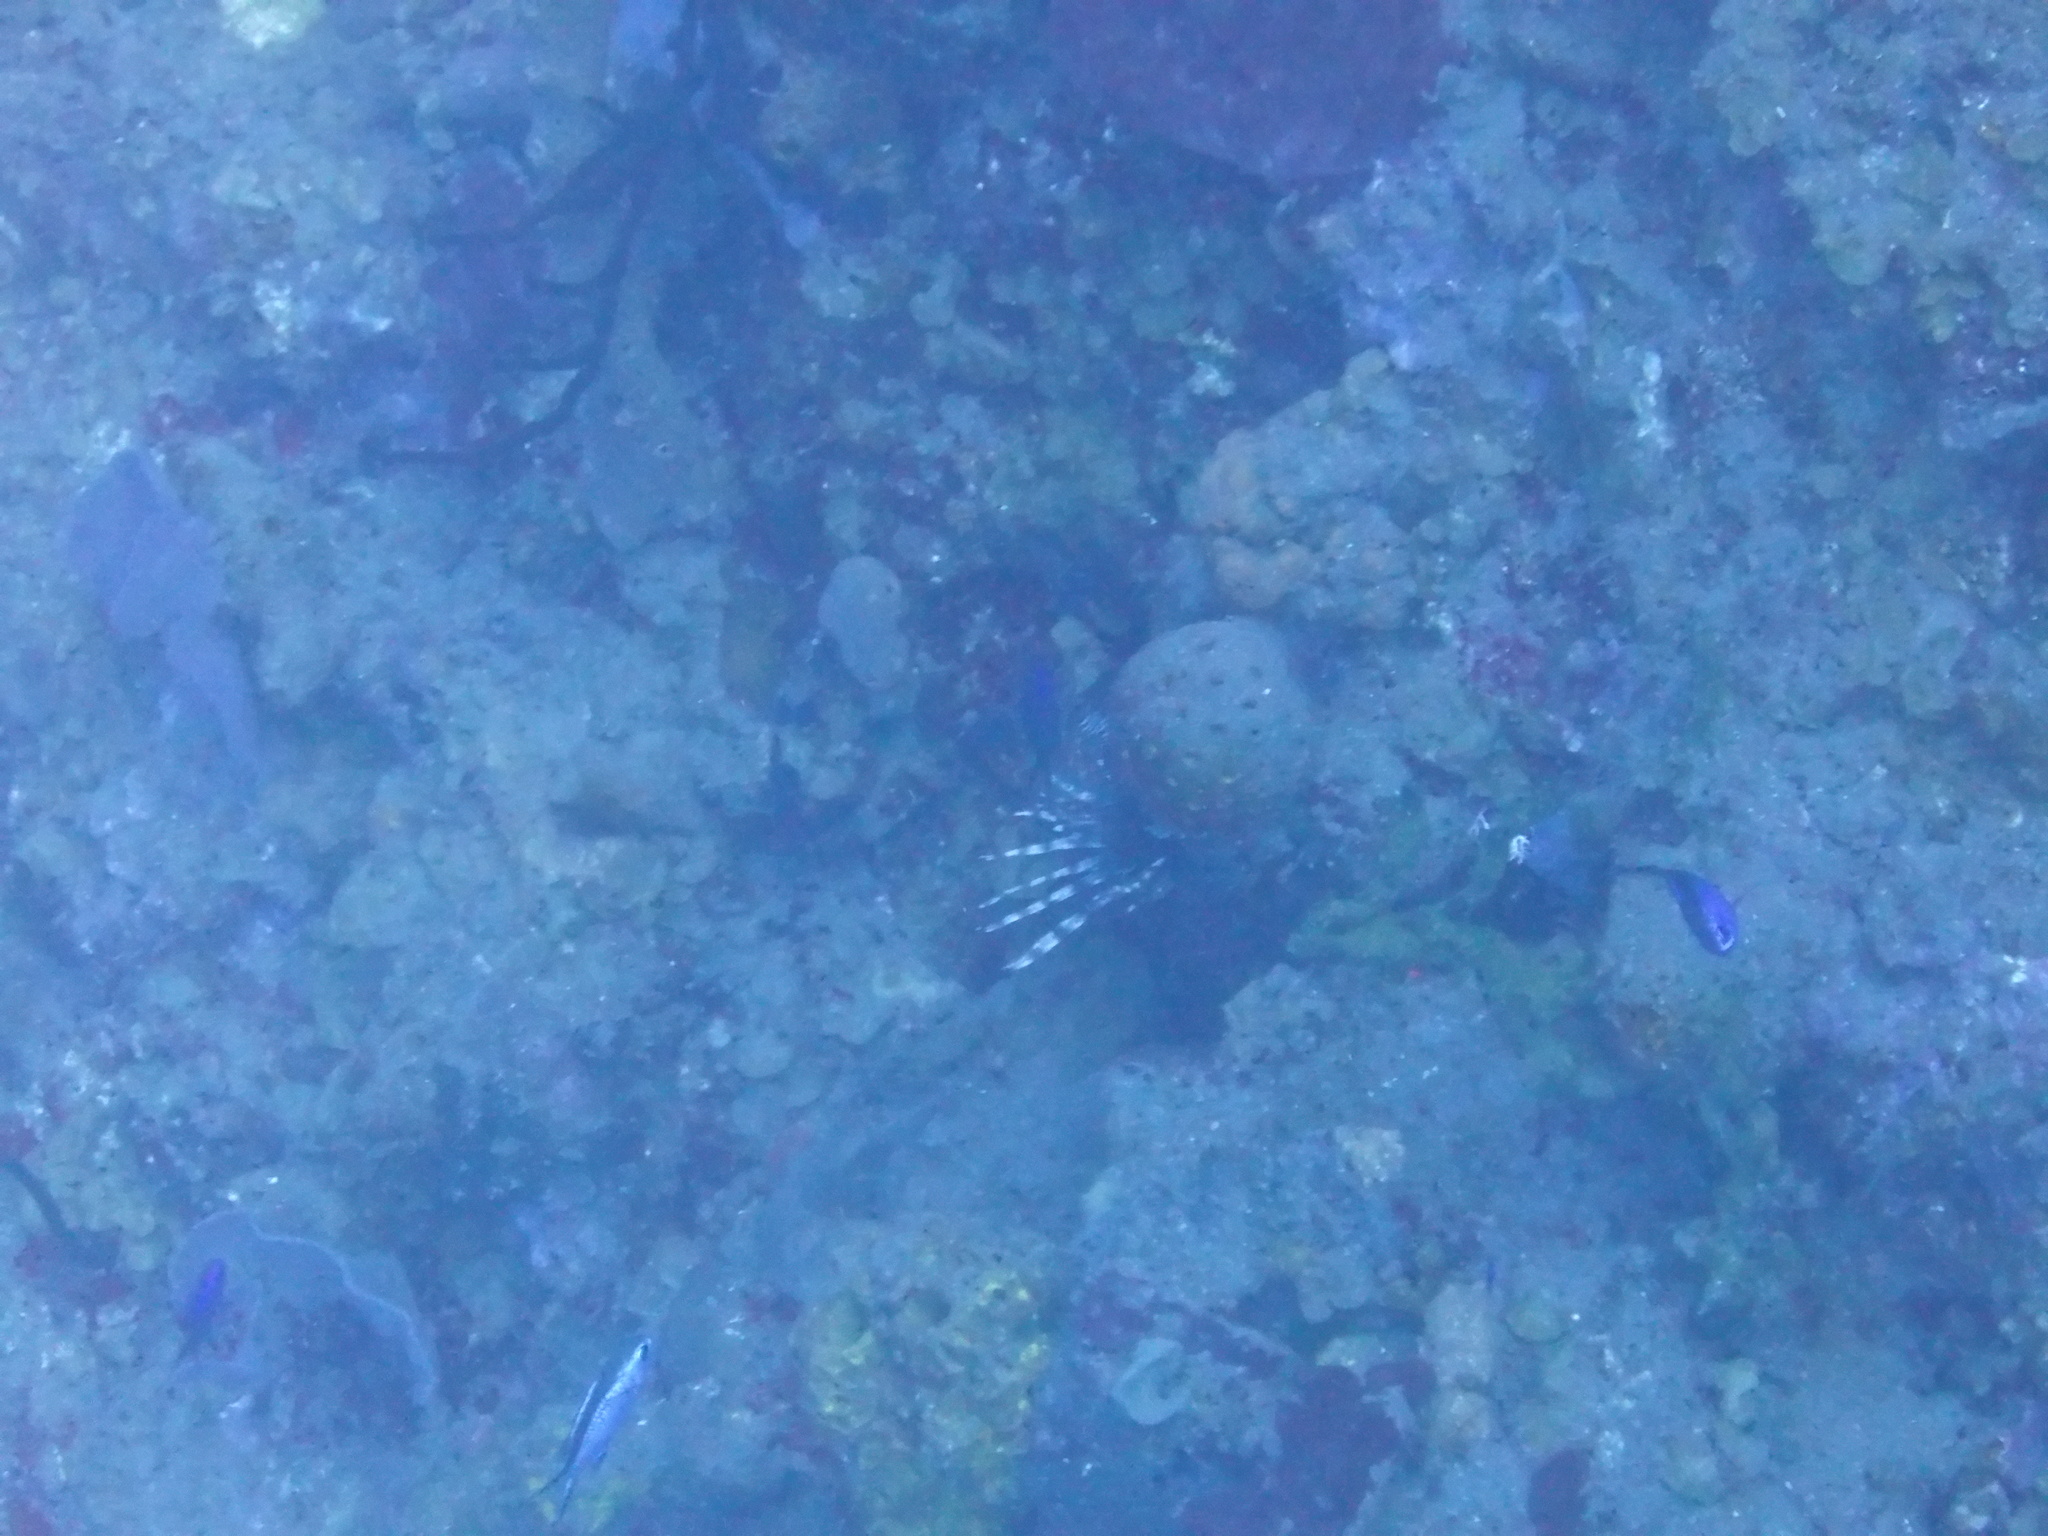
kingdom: Animalia
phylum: Chordata
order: Scorpaeniformes
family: Scorpaenidae
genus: Pterois
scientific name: Pterois volitans
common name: Lionfish
